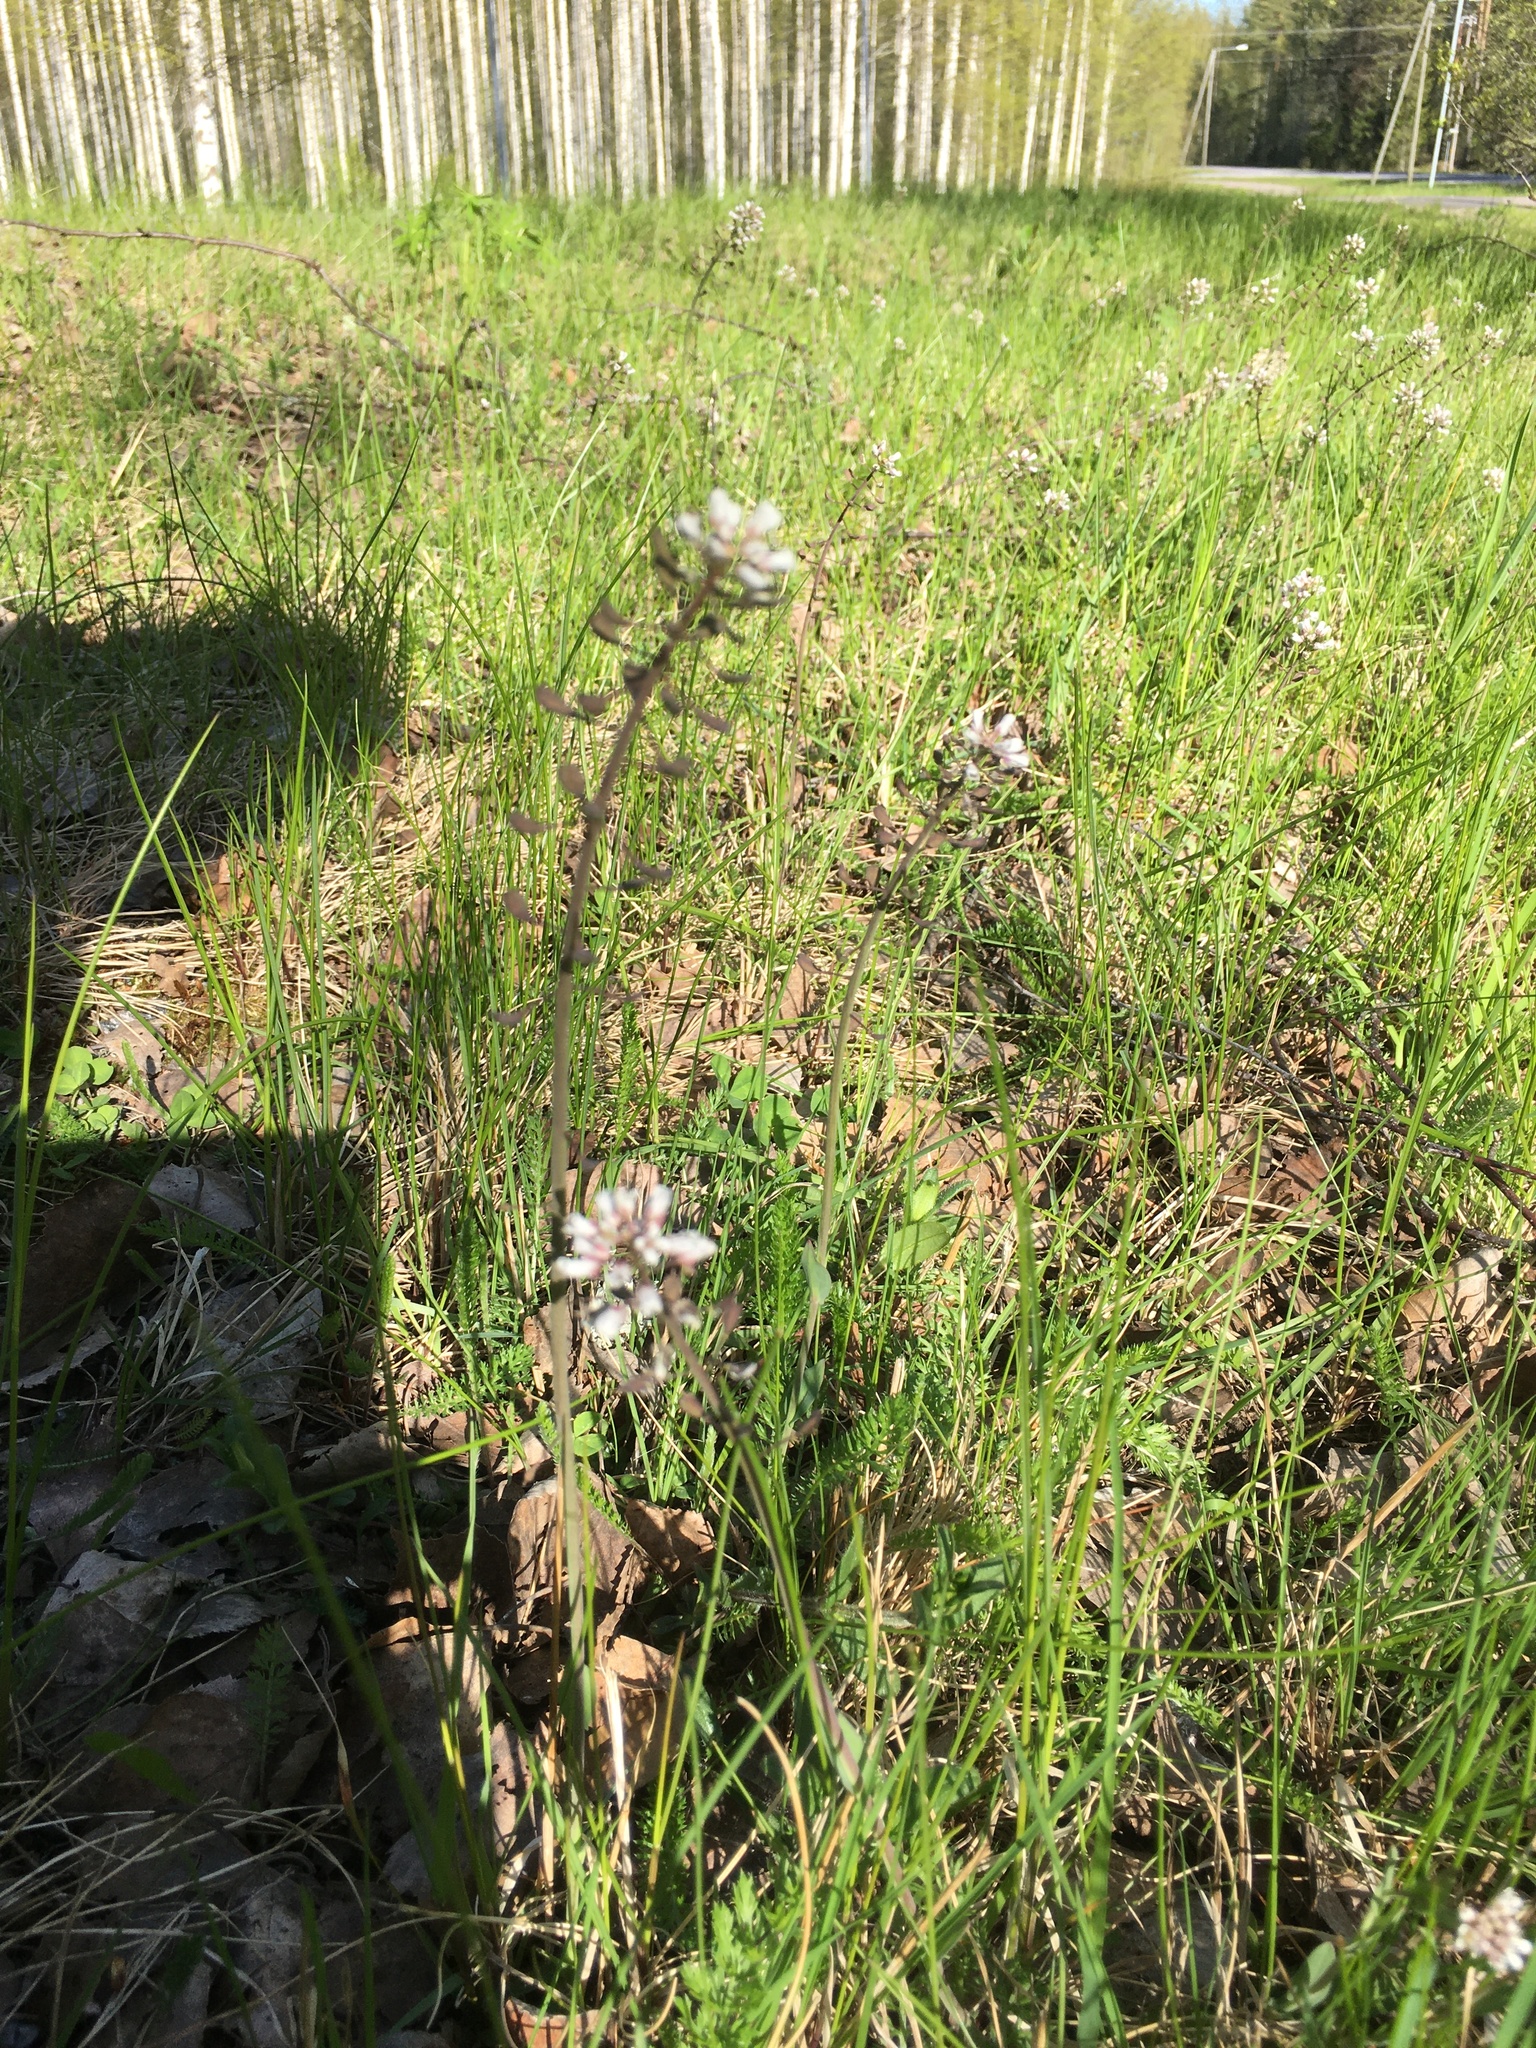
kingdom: Plantae
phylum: Tracheophyta
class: Magnoliopsida
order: Brassicales
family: Brassicaceae
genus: Capsella
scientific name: Capsella bursa-pastoris
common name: Shepherd's purse
